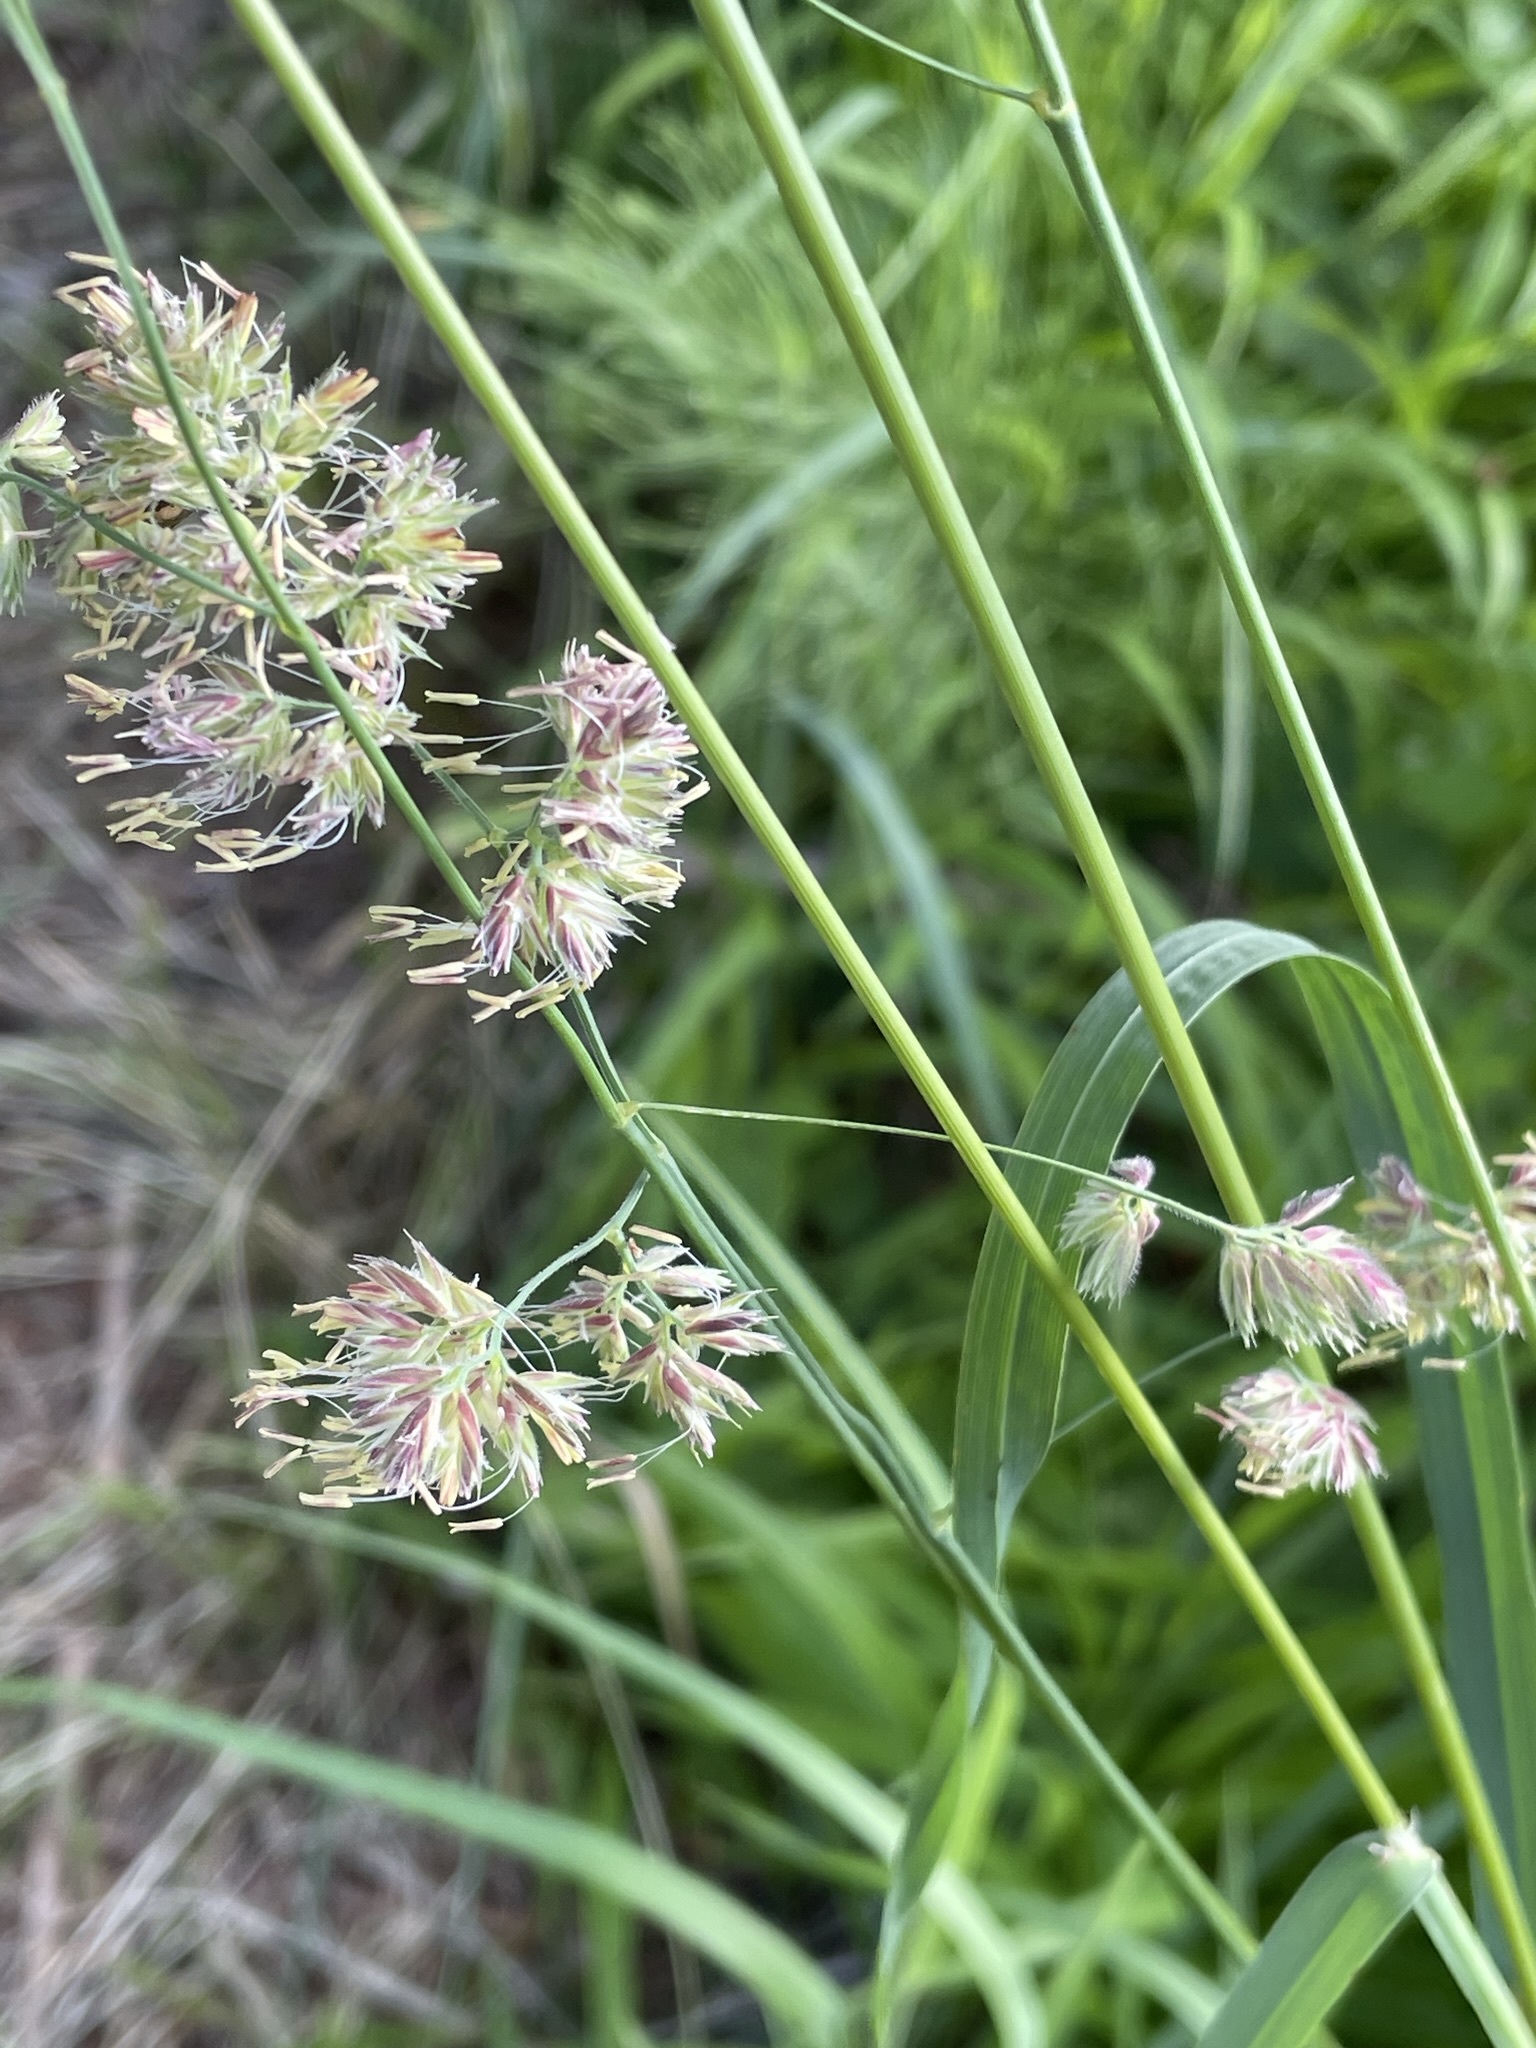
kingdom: Plantae
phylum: Tracheophyta
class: Liliopsida
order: Poales
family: Poaceae
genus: Dactylis
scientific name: Dactylis glomerata
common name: Orchardgrass
